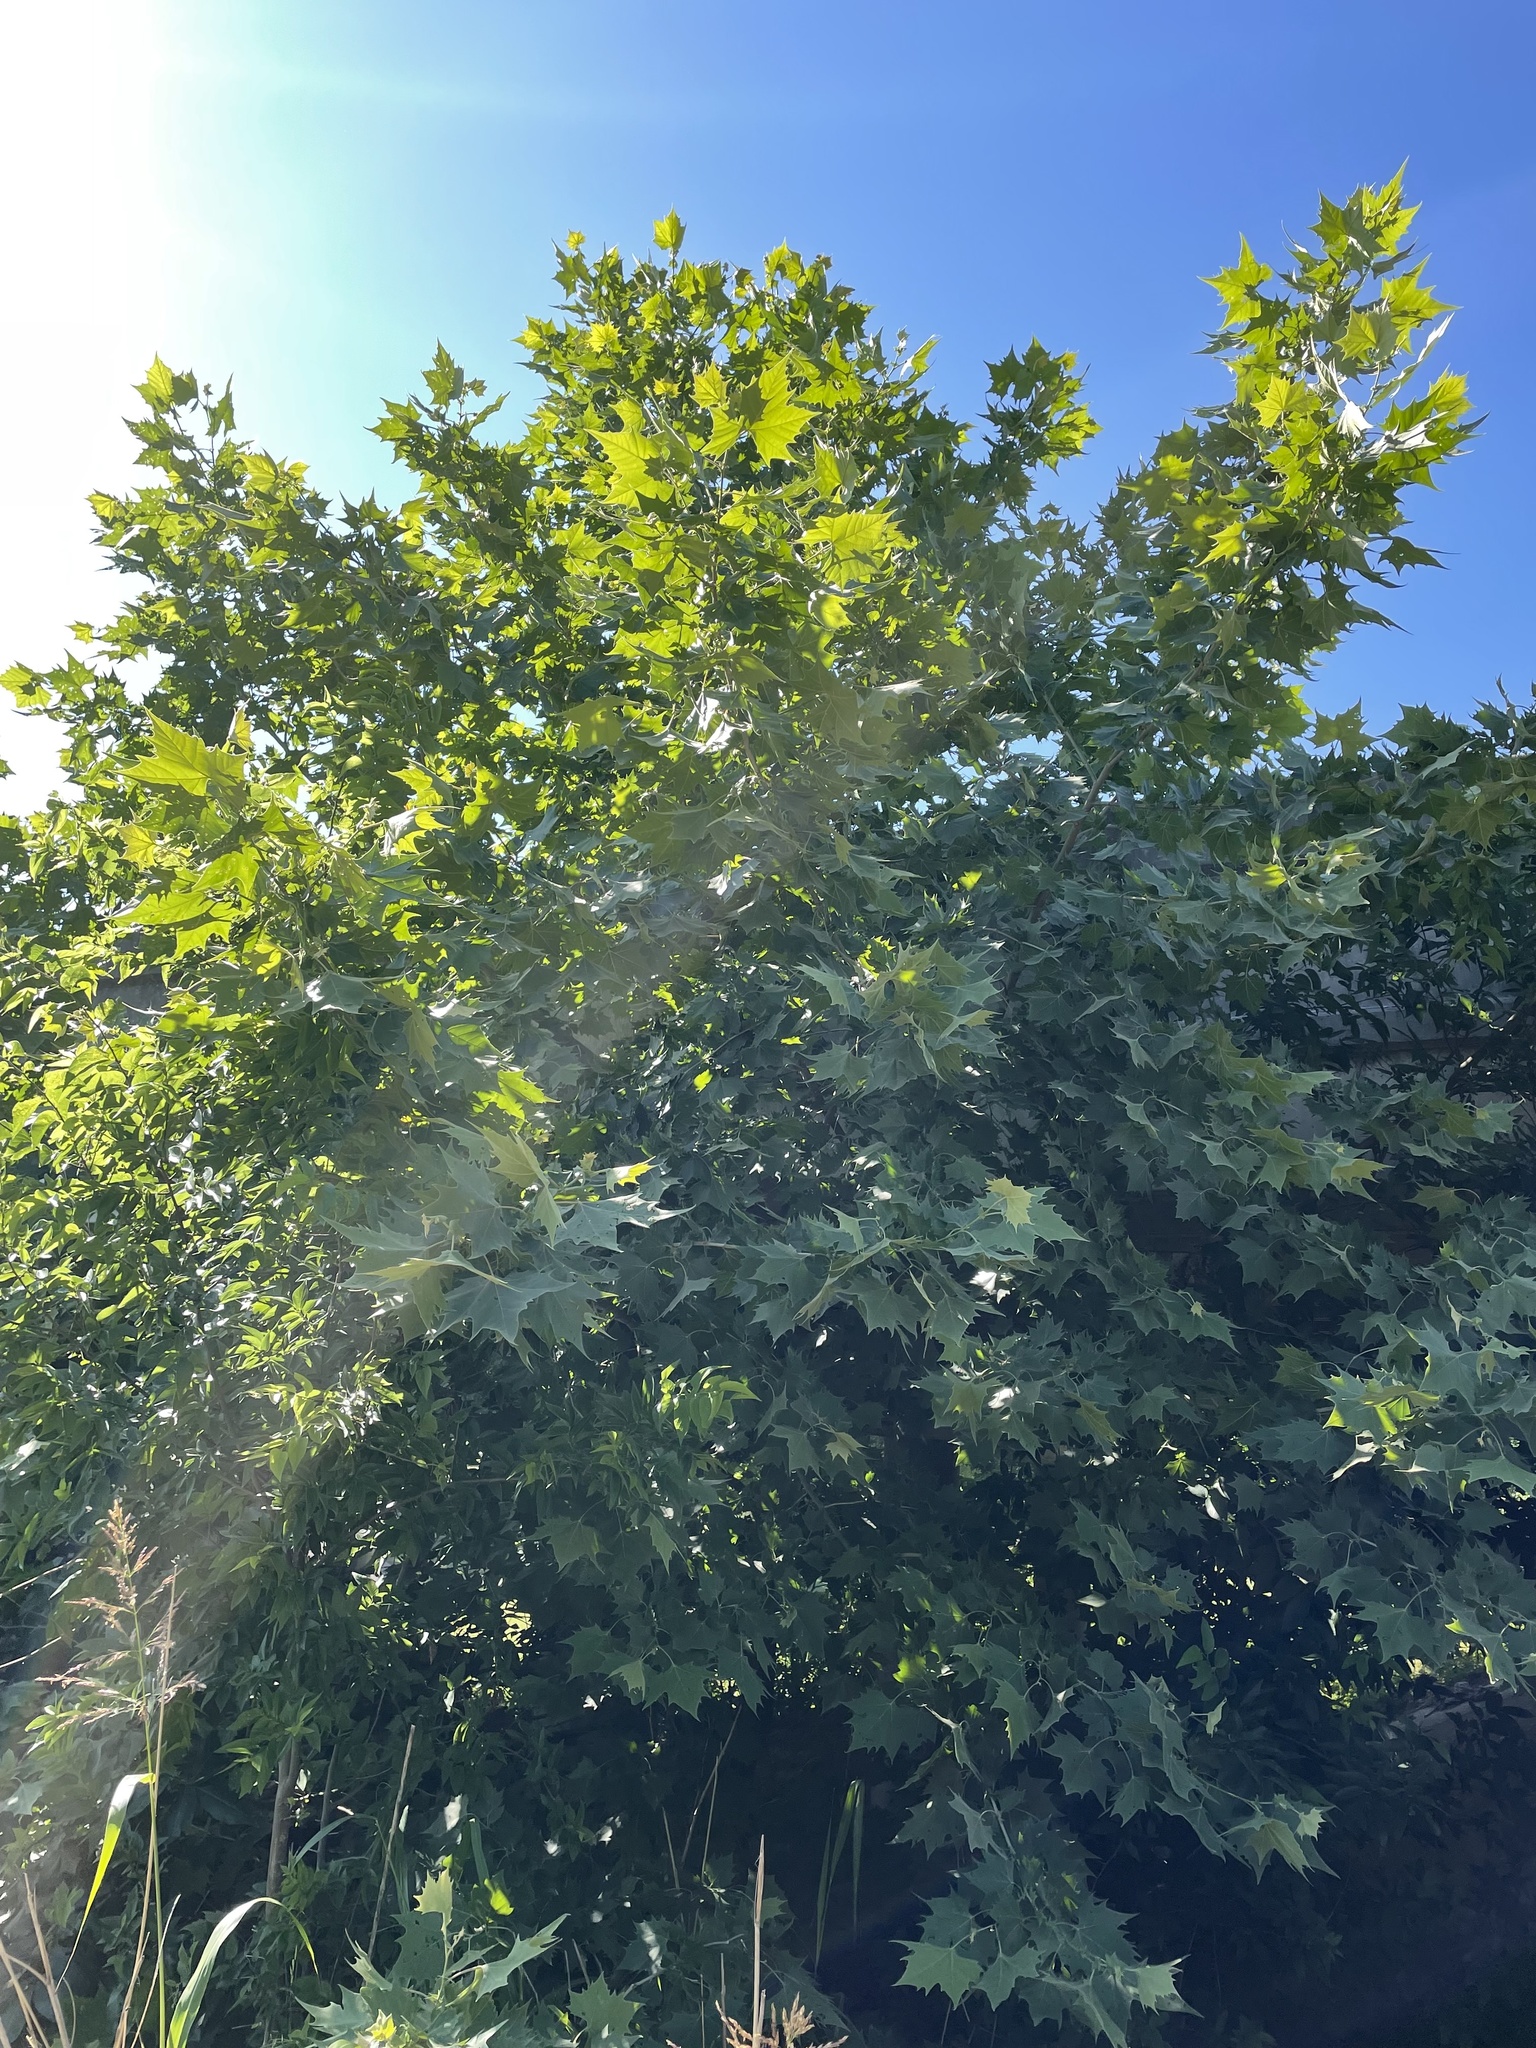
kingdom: Plantae
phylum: Tracheophyta
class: Magnoliopsida
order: Proteales
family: Platanaceae
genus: Platanus
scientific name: Platanus occidentalis
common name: American sycamore
